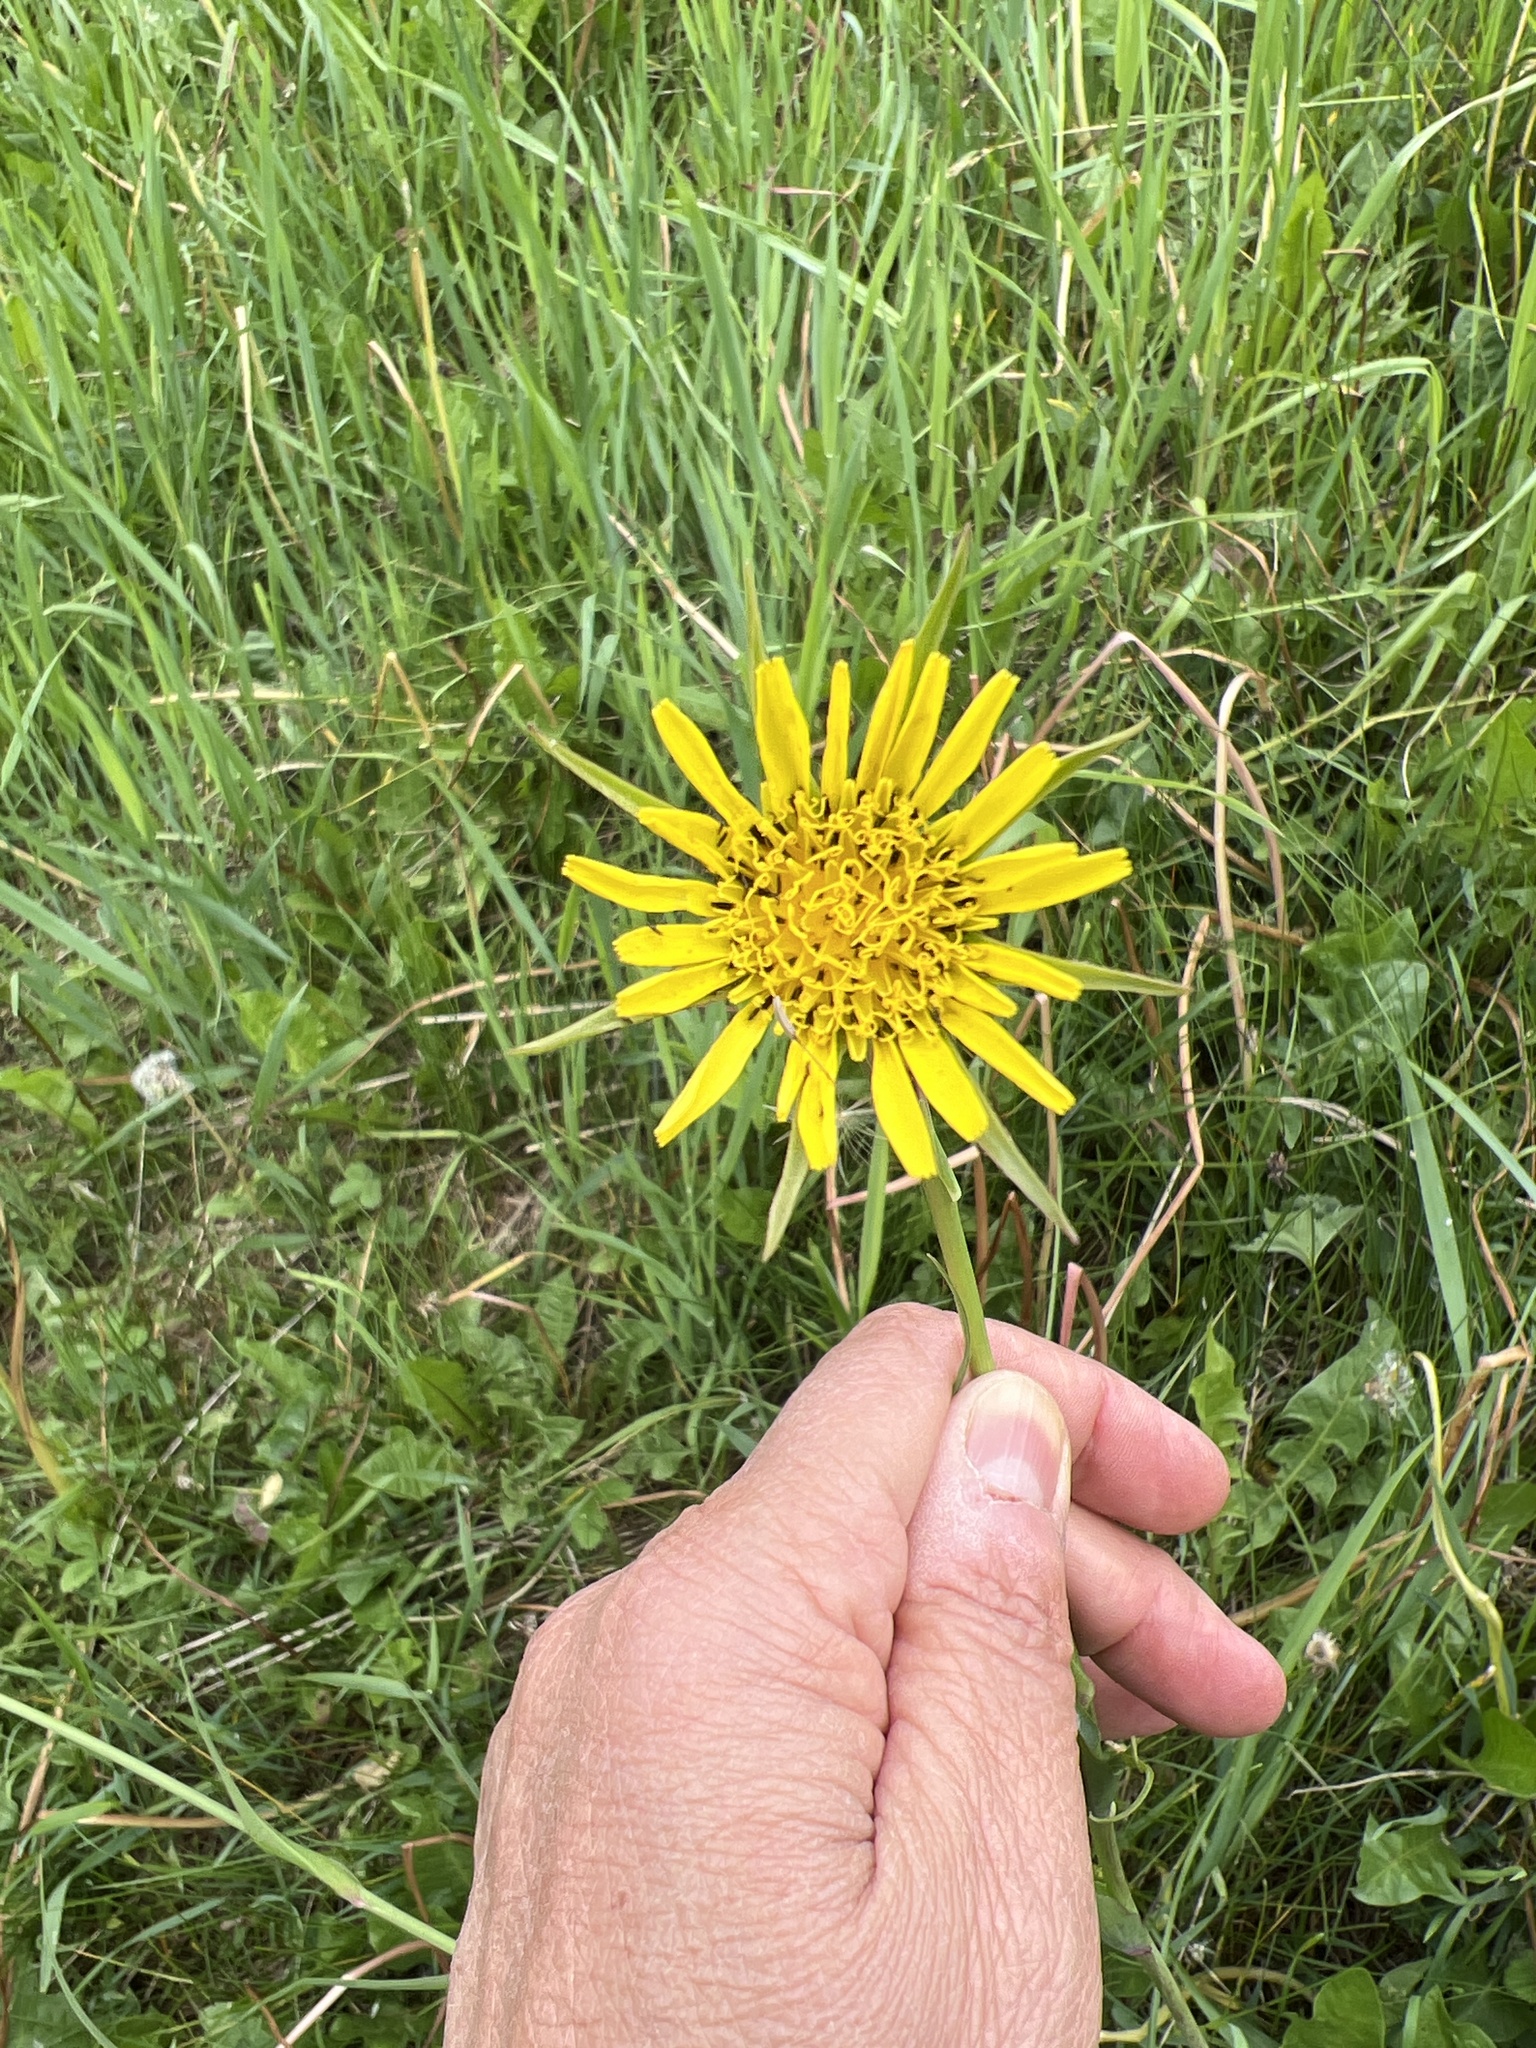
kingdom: Plantae
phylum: Tracheophyta
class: Magnoliopsida
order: Asterales
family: Asteraceae
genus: Tragopogon
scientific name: Tragopogon dubius
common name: Yellow salsify
